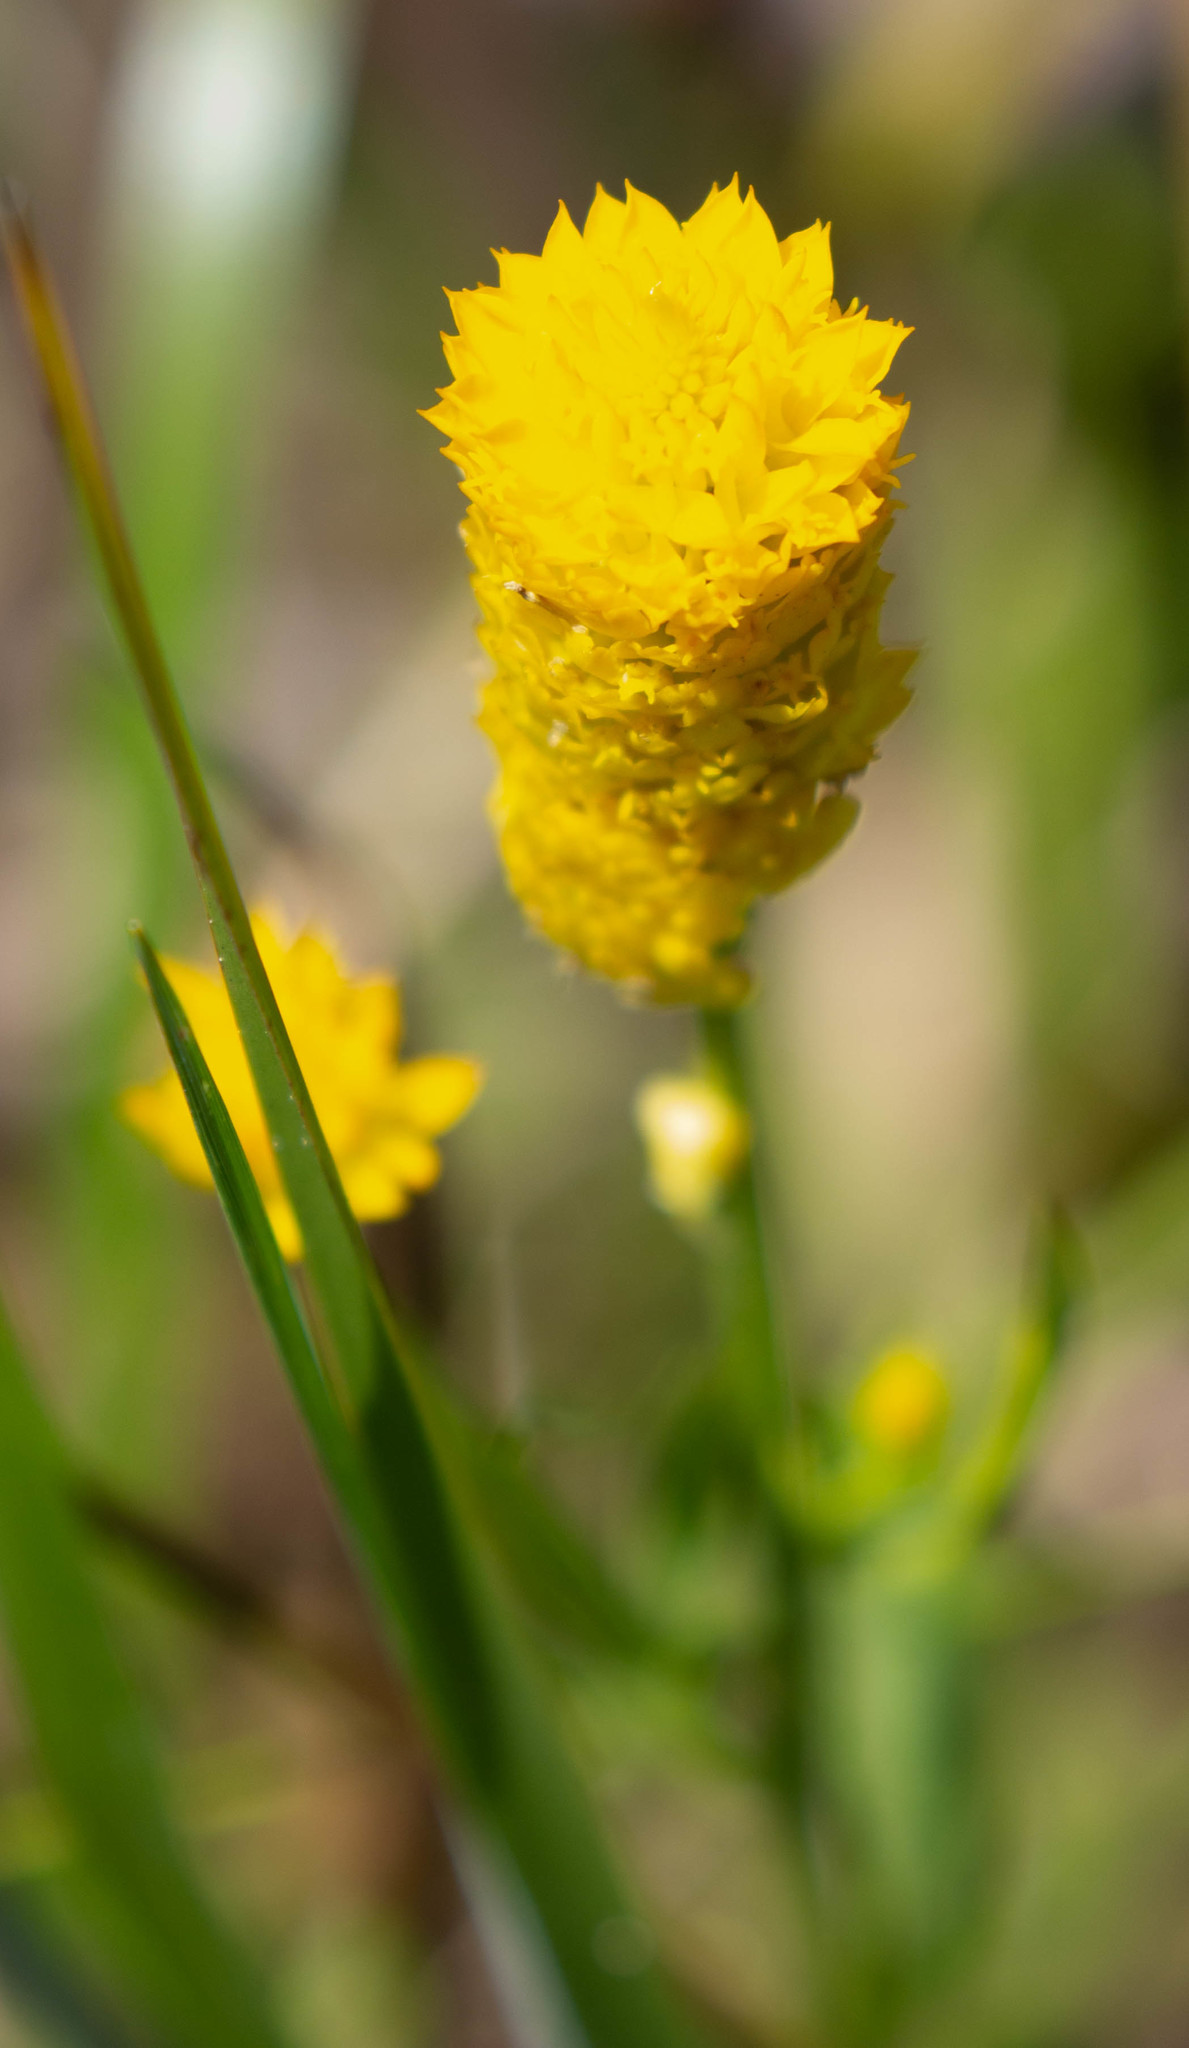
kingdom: Plantae
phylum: Tracheophyta
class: Magnoliopsida
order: Fabales
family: Polygalaceae
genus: Polygala
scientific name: Polygala lutea
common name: Orange milkwort
